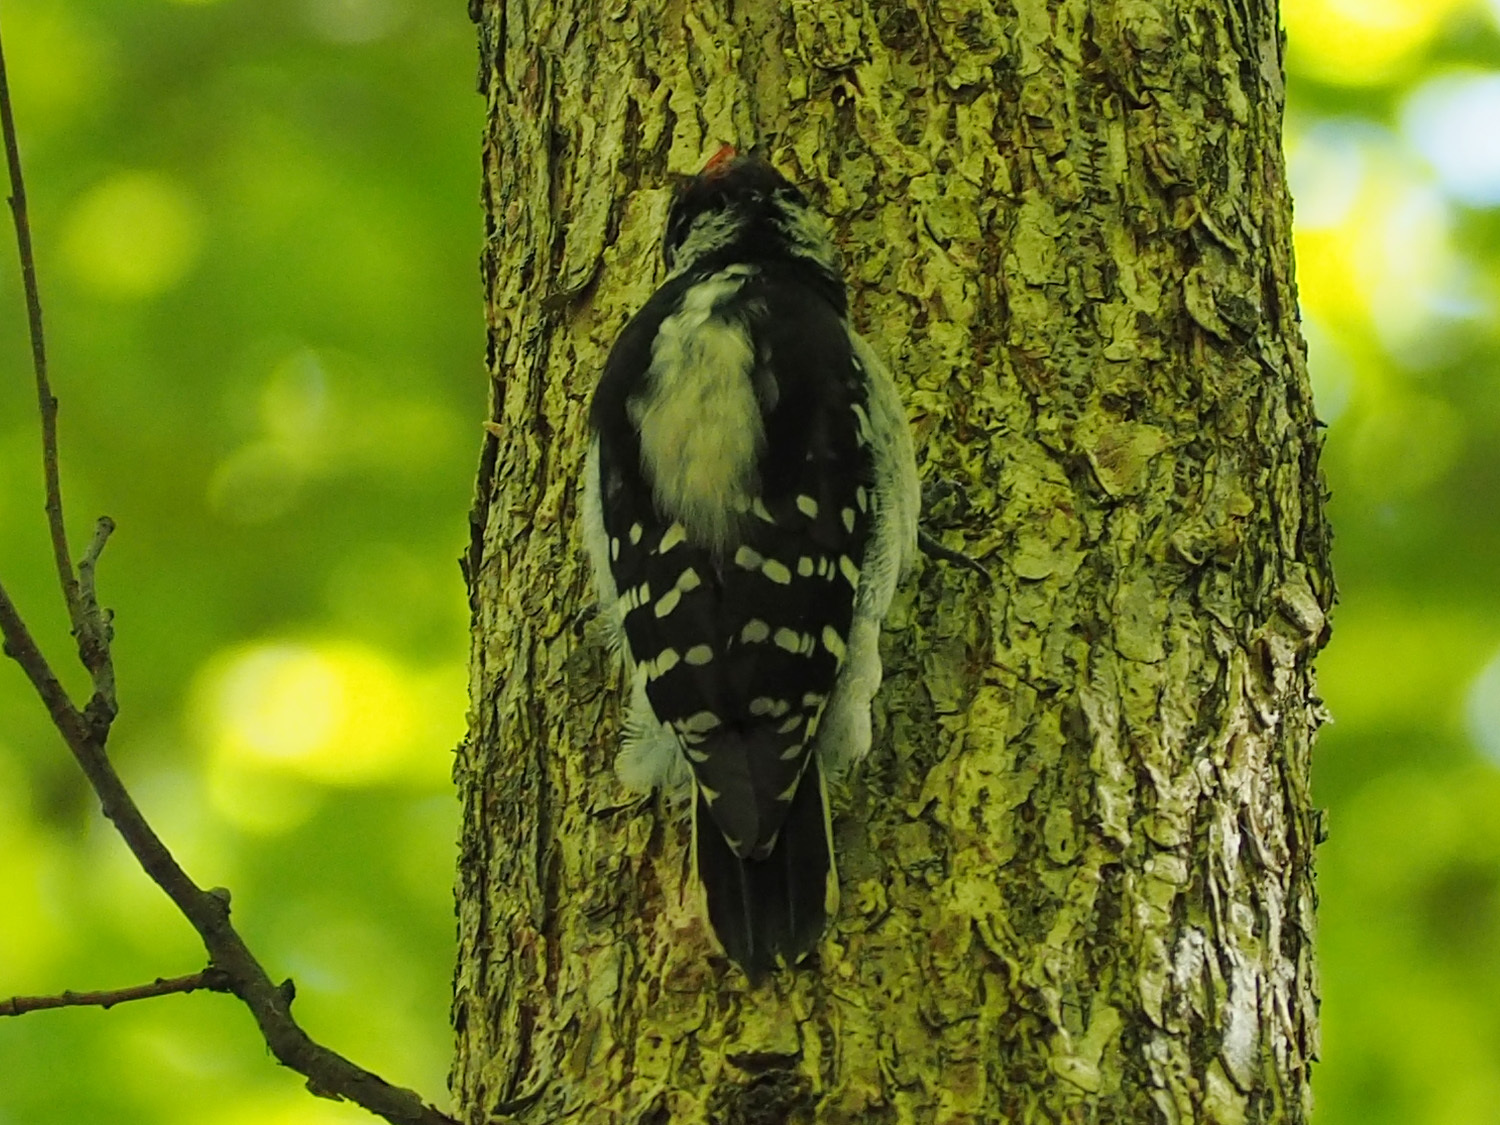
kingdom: Animalia
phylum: Chordata
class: Aves
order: Piciformes
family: Picidae
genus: Dryobates
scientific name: Dryobates pubescens
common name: Downy woodpecker
